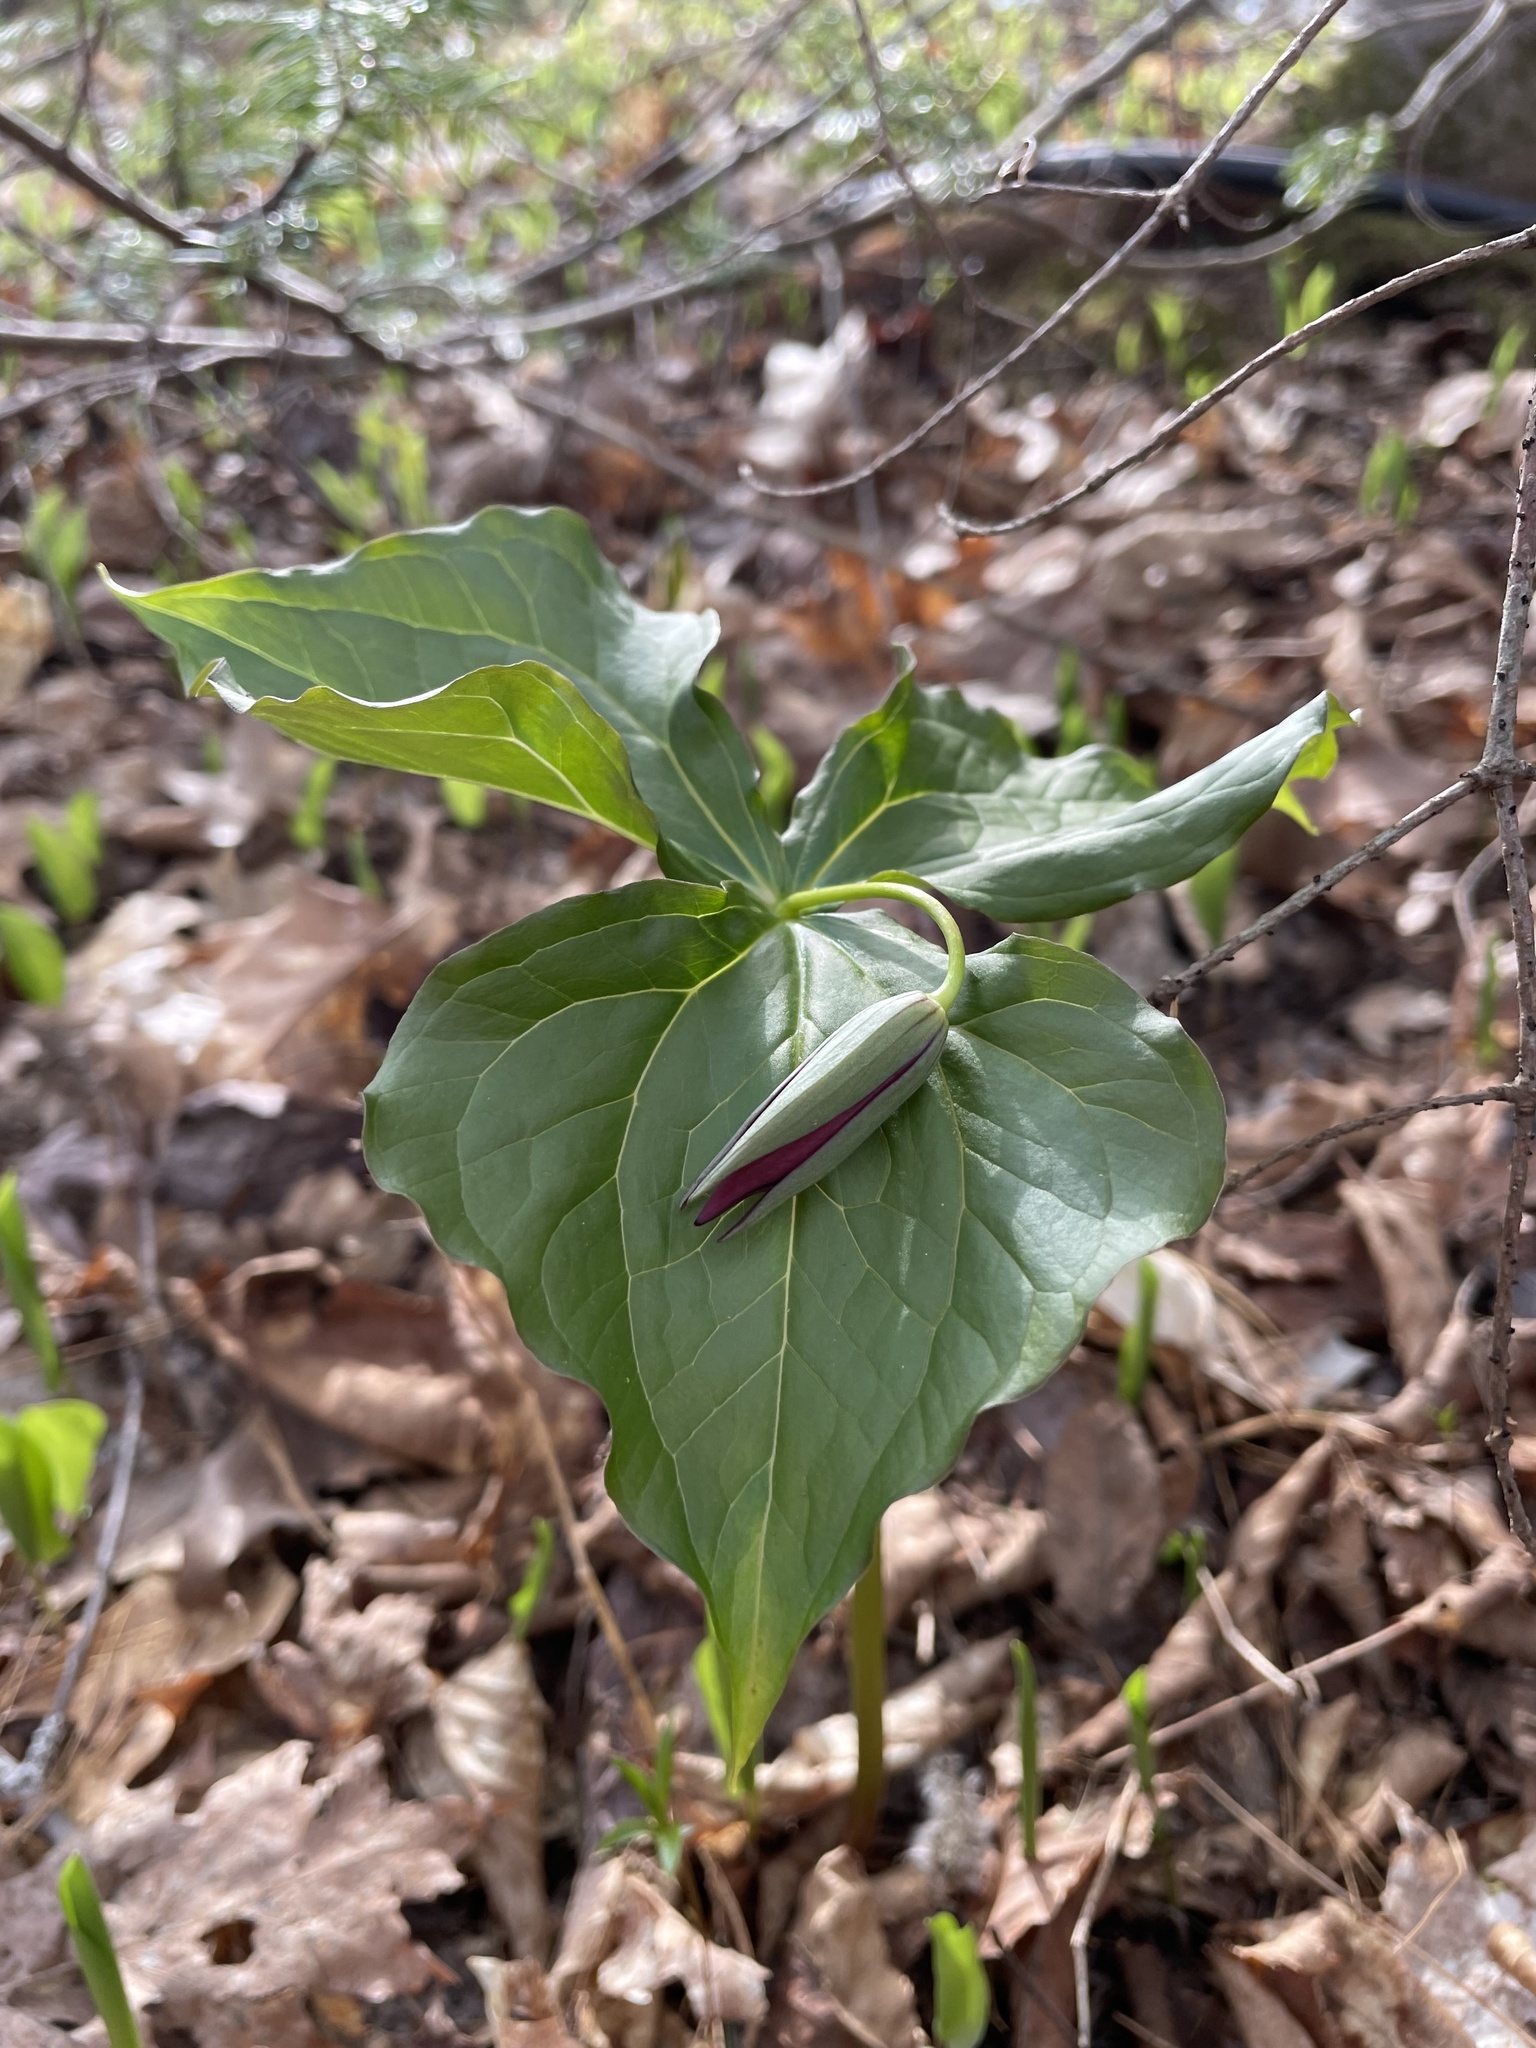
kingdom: Plantae
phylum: Tracheophyta
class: Liliopsida
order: Liliales
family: Melanthiaceae
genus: Trillium
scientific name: Trillium erectum
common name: Purple trillium
